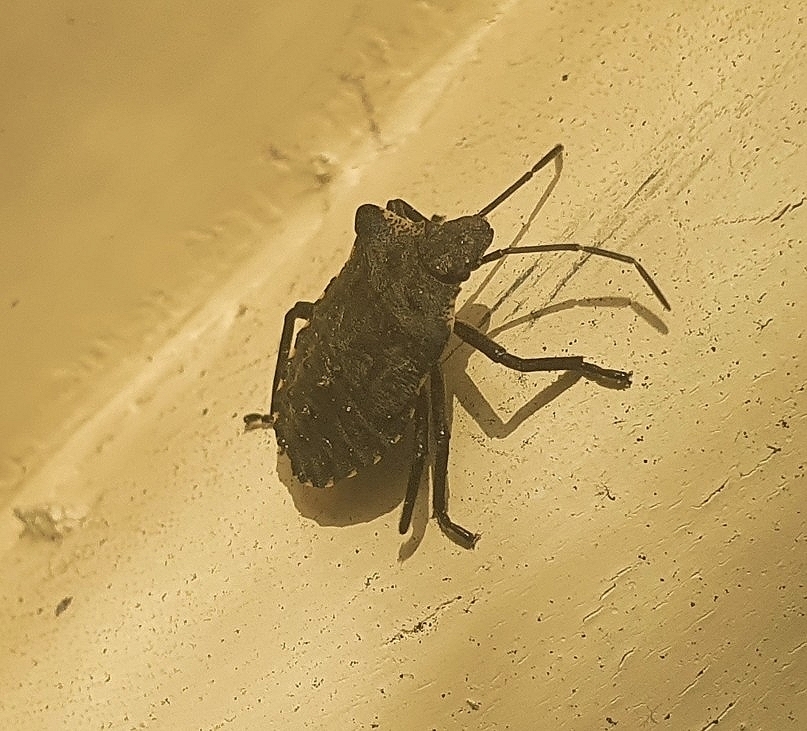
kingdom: Animalia
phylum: Arthropoda
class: Insecta
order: Hemiptera
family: Pentatomidae
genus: Pentatoma
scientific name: Pentatoma rufipes
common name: Forest bug
